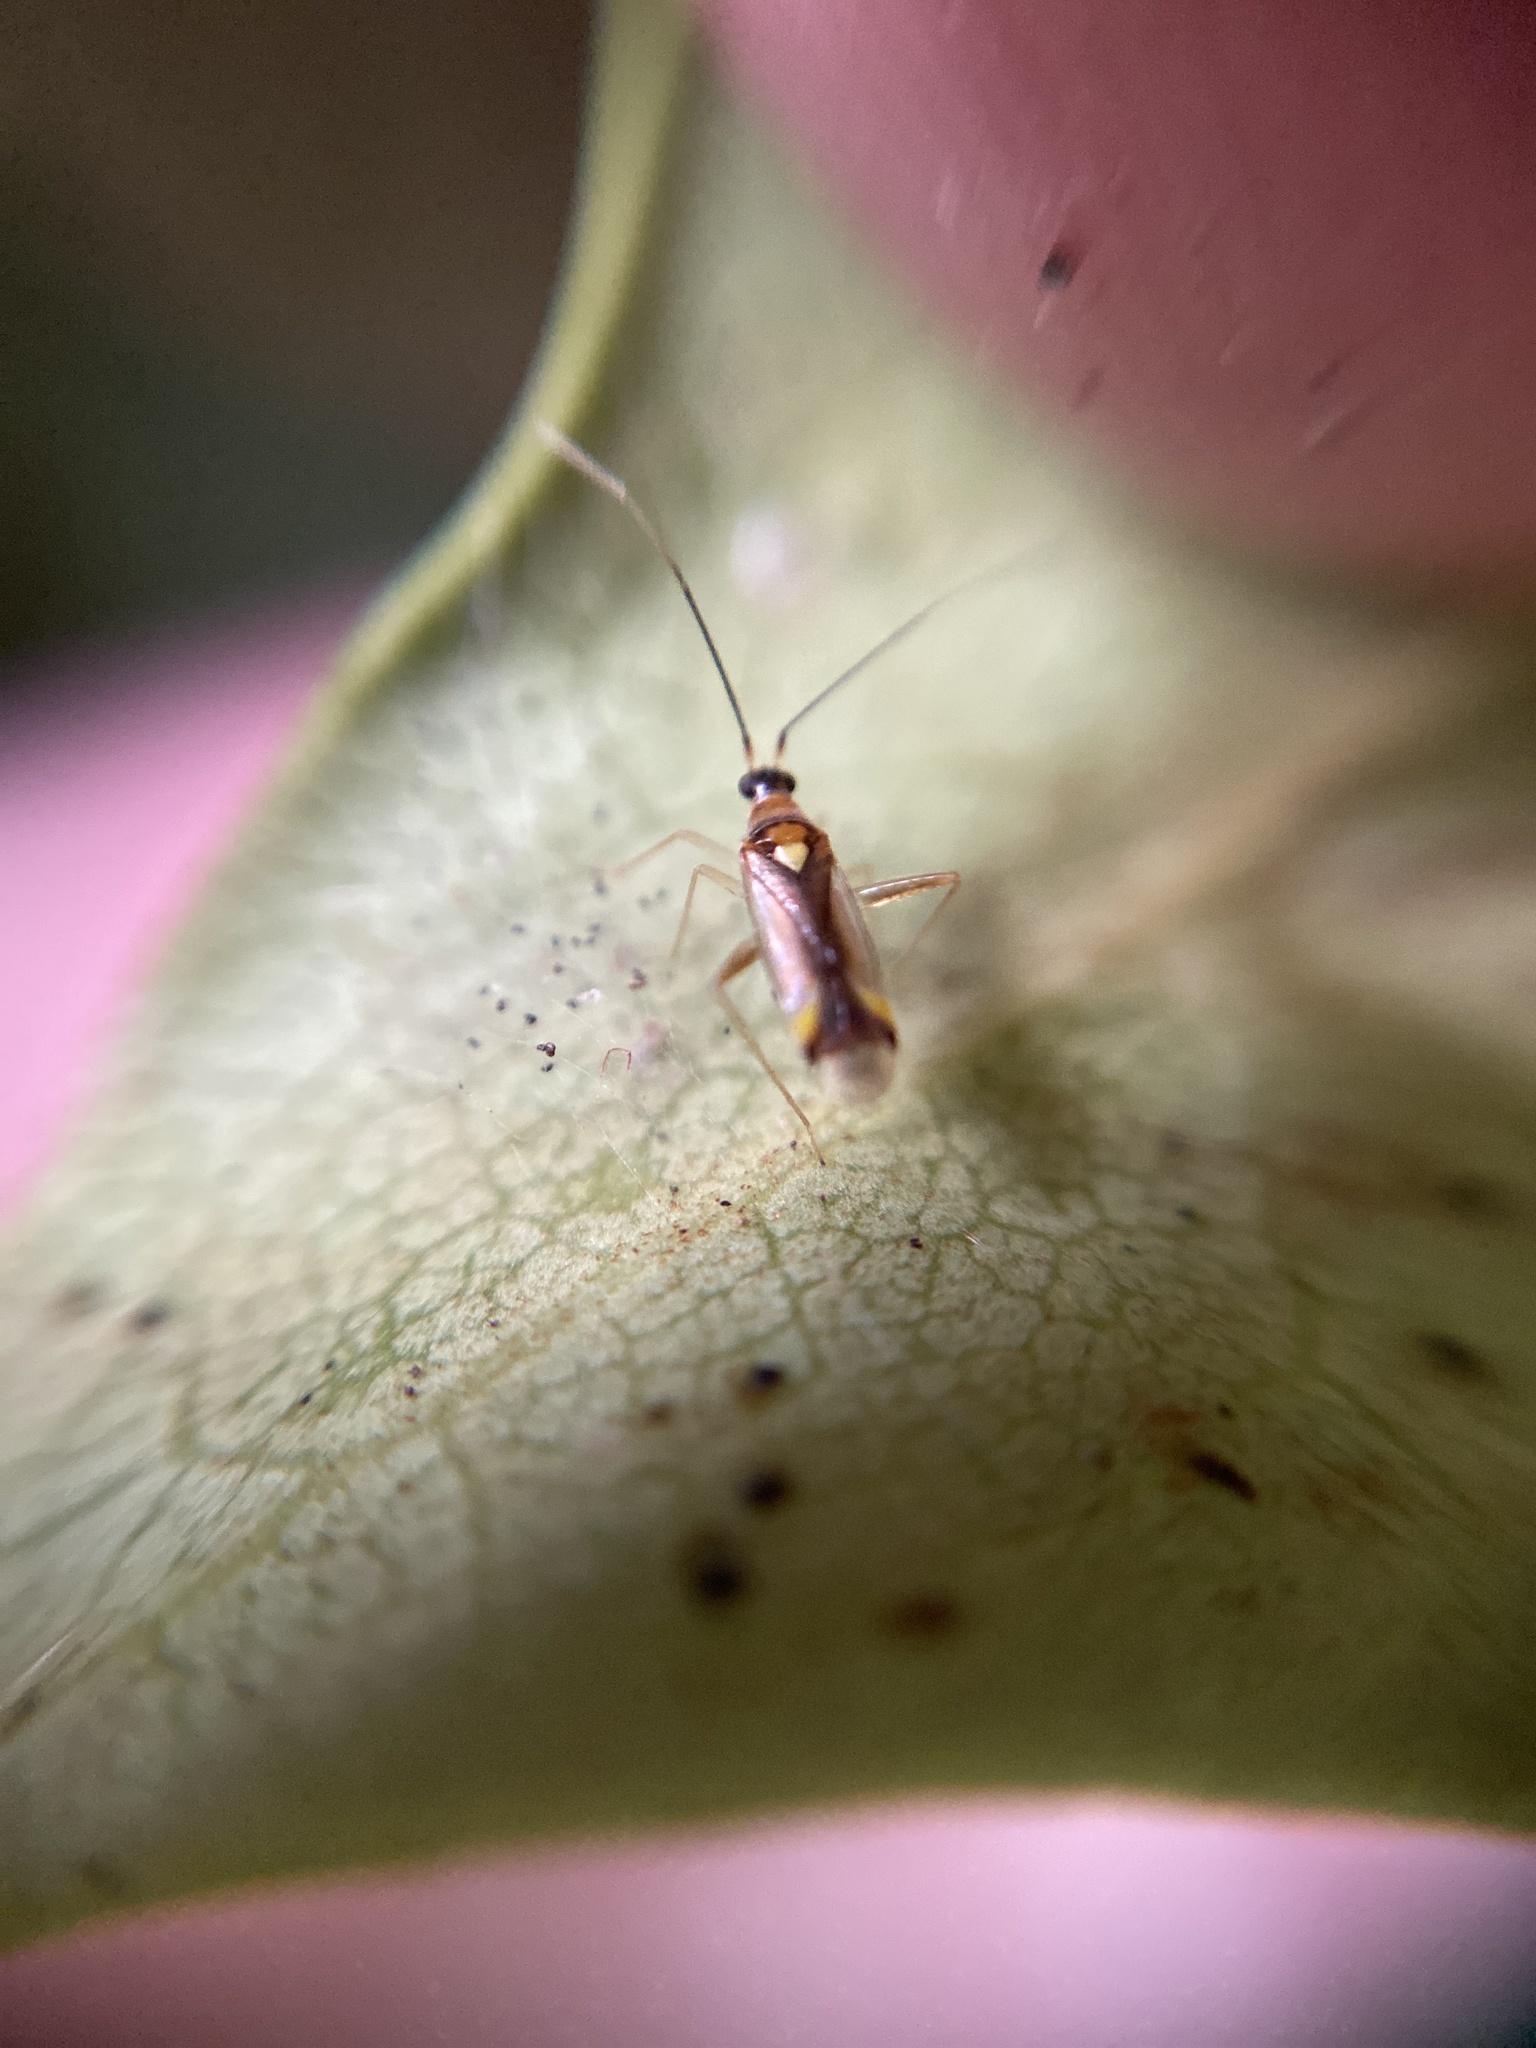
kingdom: Animalia
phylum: Arthropoda
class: Insecta
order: Hemiptera
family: Miridae
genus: Campyloneura
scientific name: Campyloneura virgula
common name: Predatory bug
